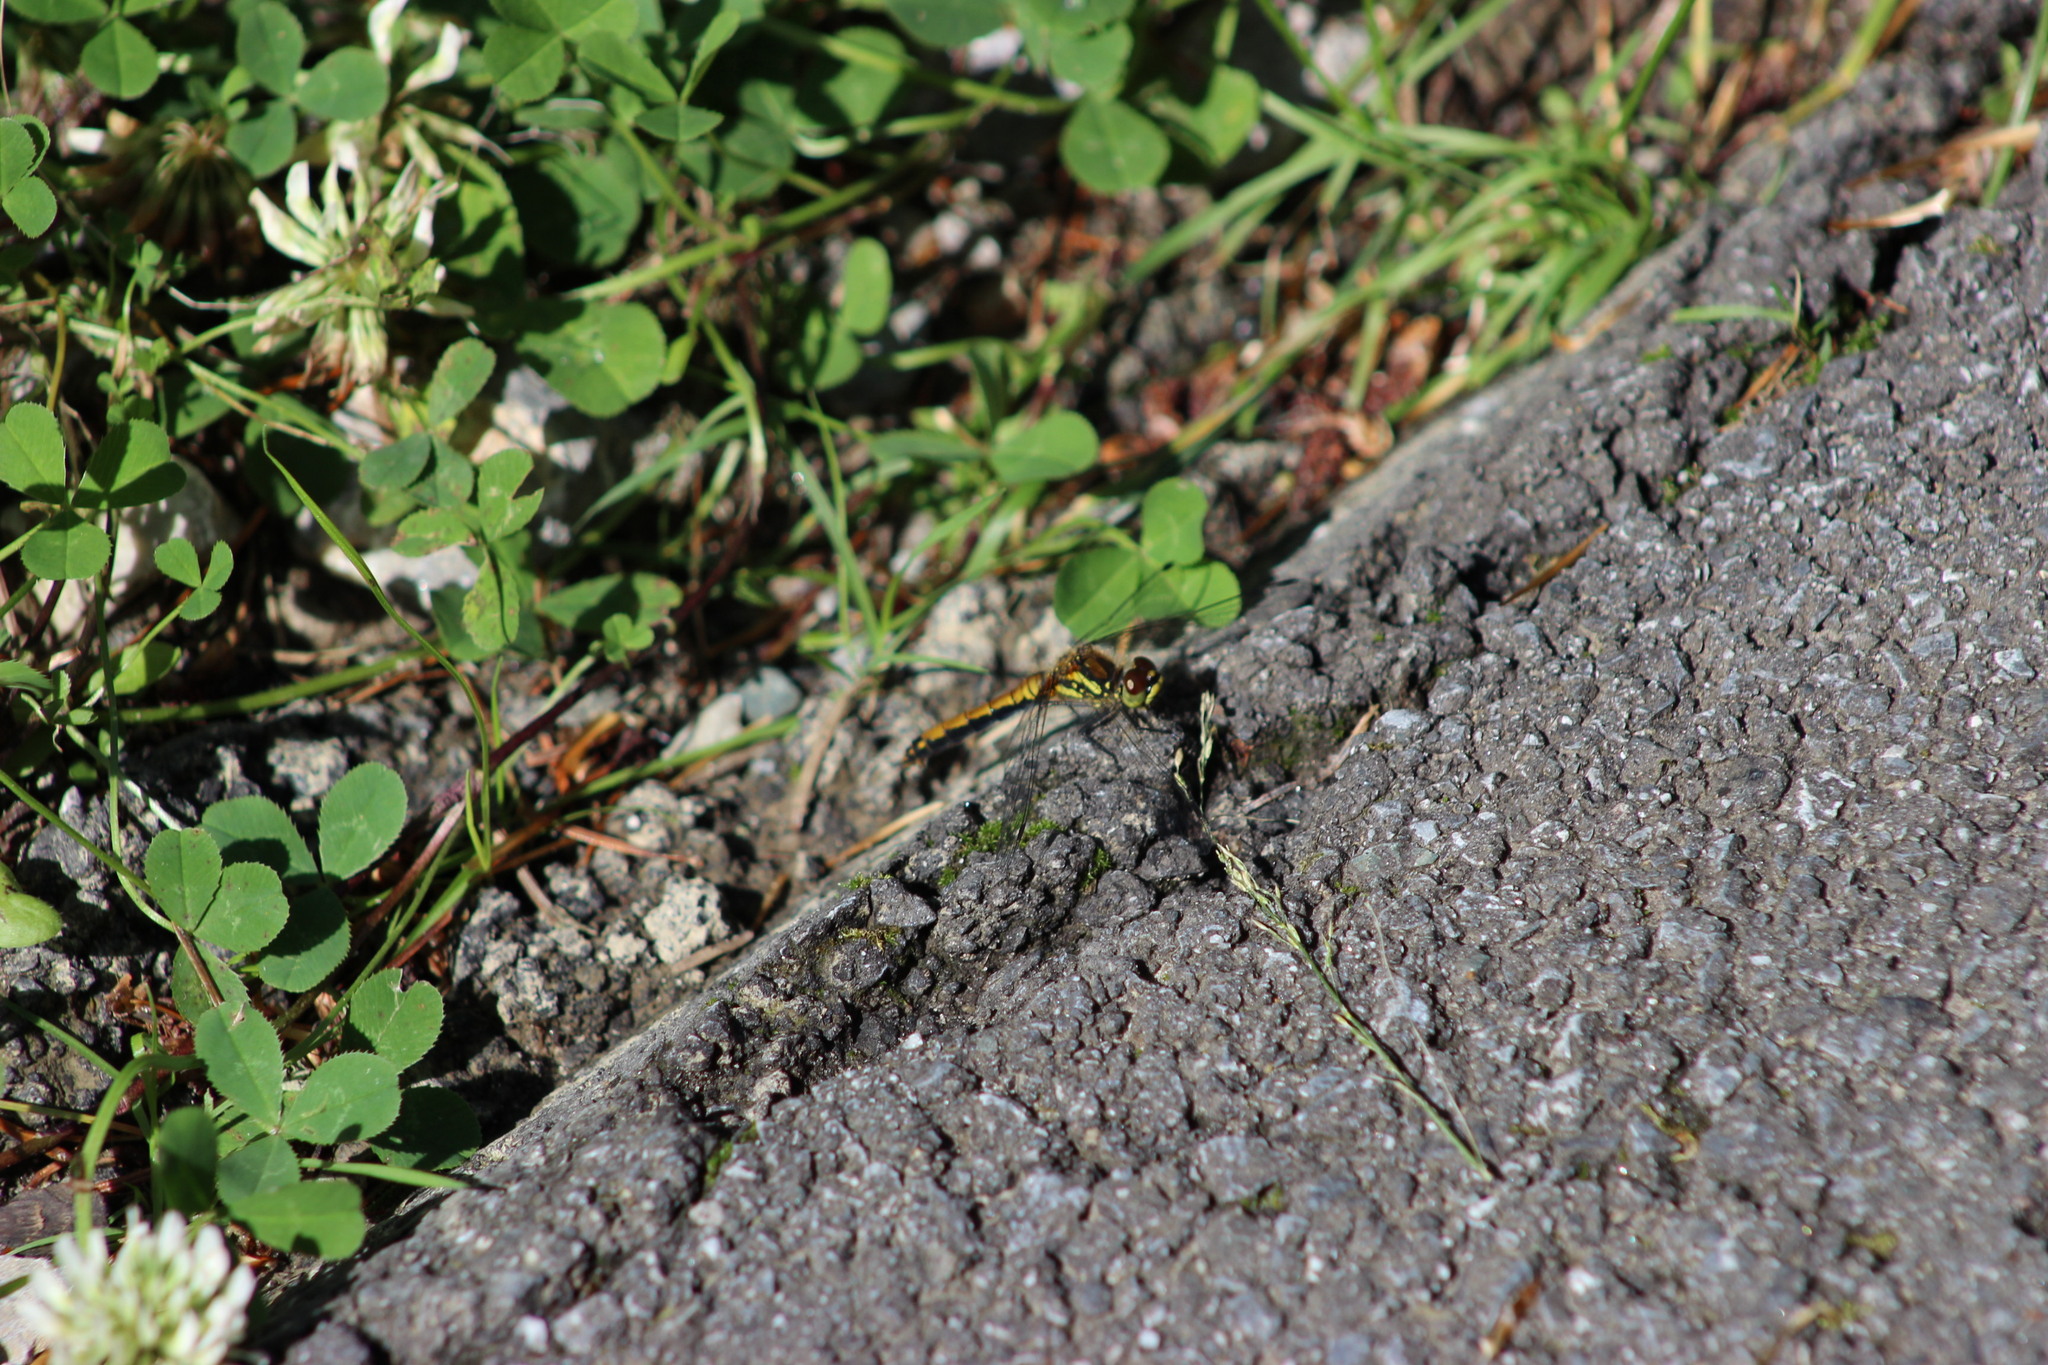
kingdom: Animalia
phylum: Arthropoda
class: Insecta
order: Odonata
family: Libellulidae
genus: Sympetrum
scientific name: Sympetrum danae
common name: Black darter
